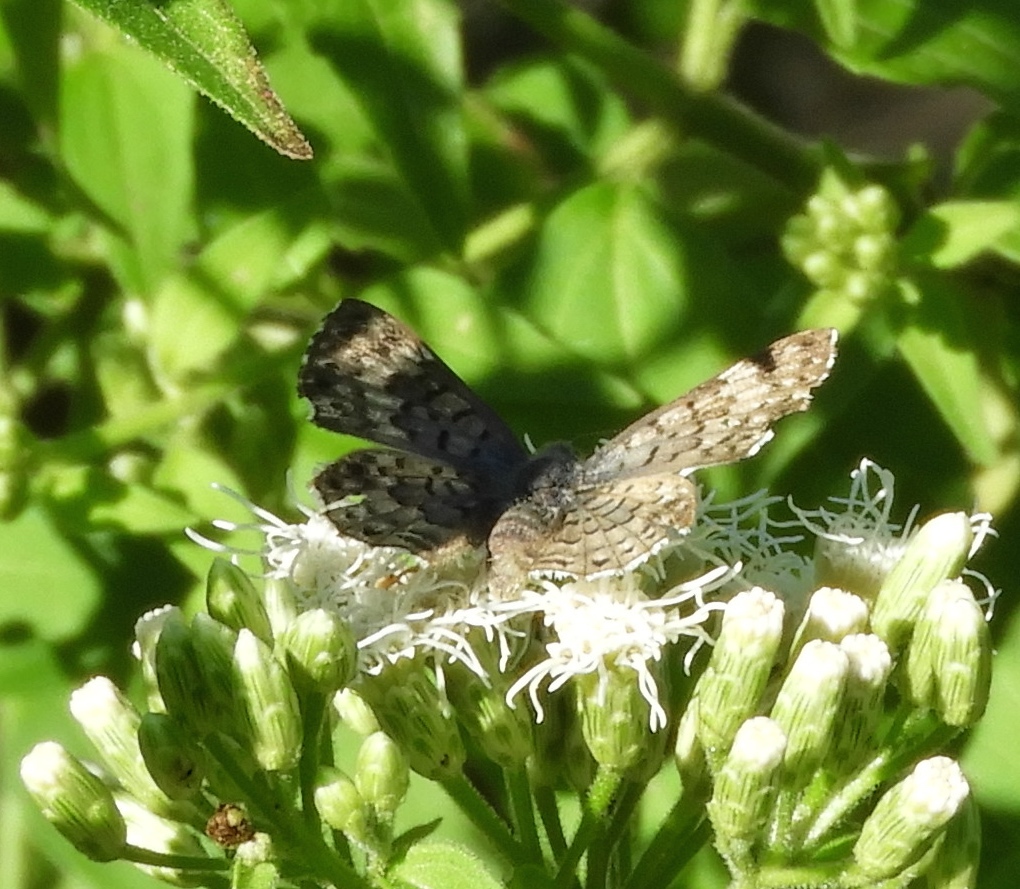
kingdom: Animalia
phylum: Arthropoda
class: Insecta
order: Diptera
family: Acroceridae
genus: Lasia
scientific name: Lasia
